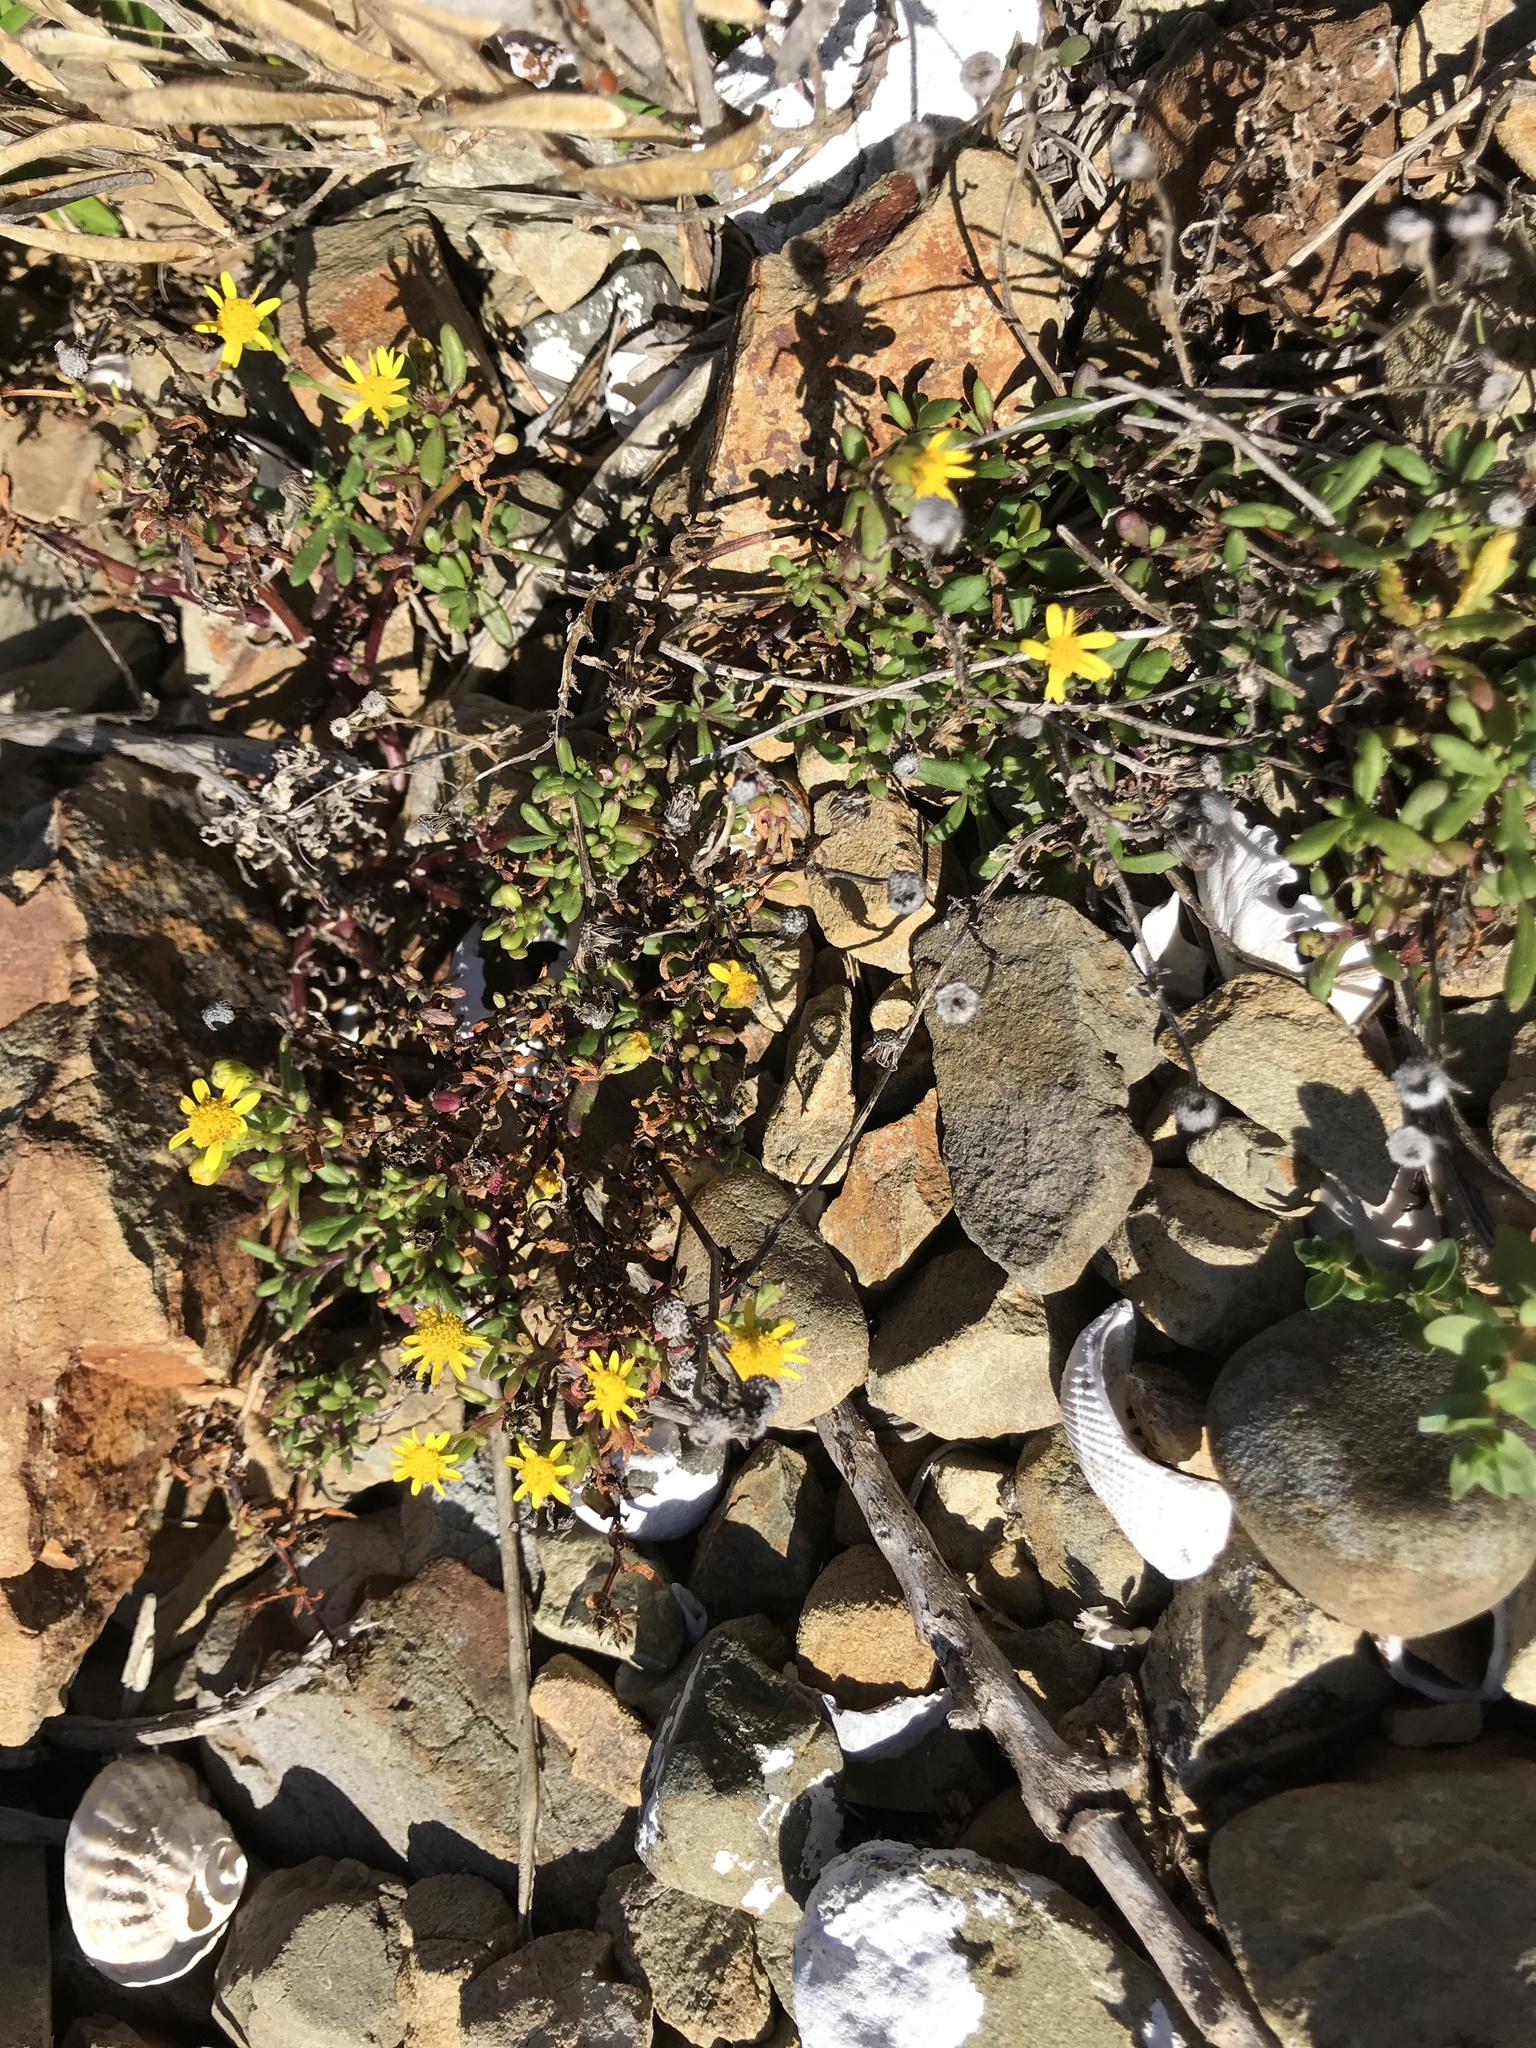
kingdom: Plantae
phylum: Tracheophyta
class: Magnoliopsida
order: Asterales
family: Asteraceae
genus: Senecio
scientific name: Senecio lautus
